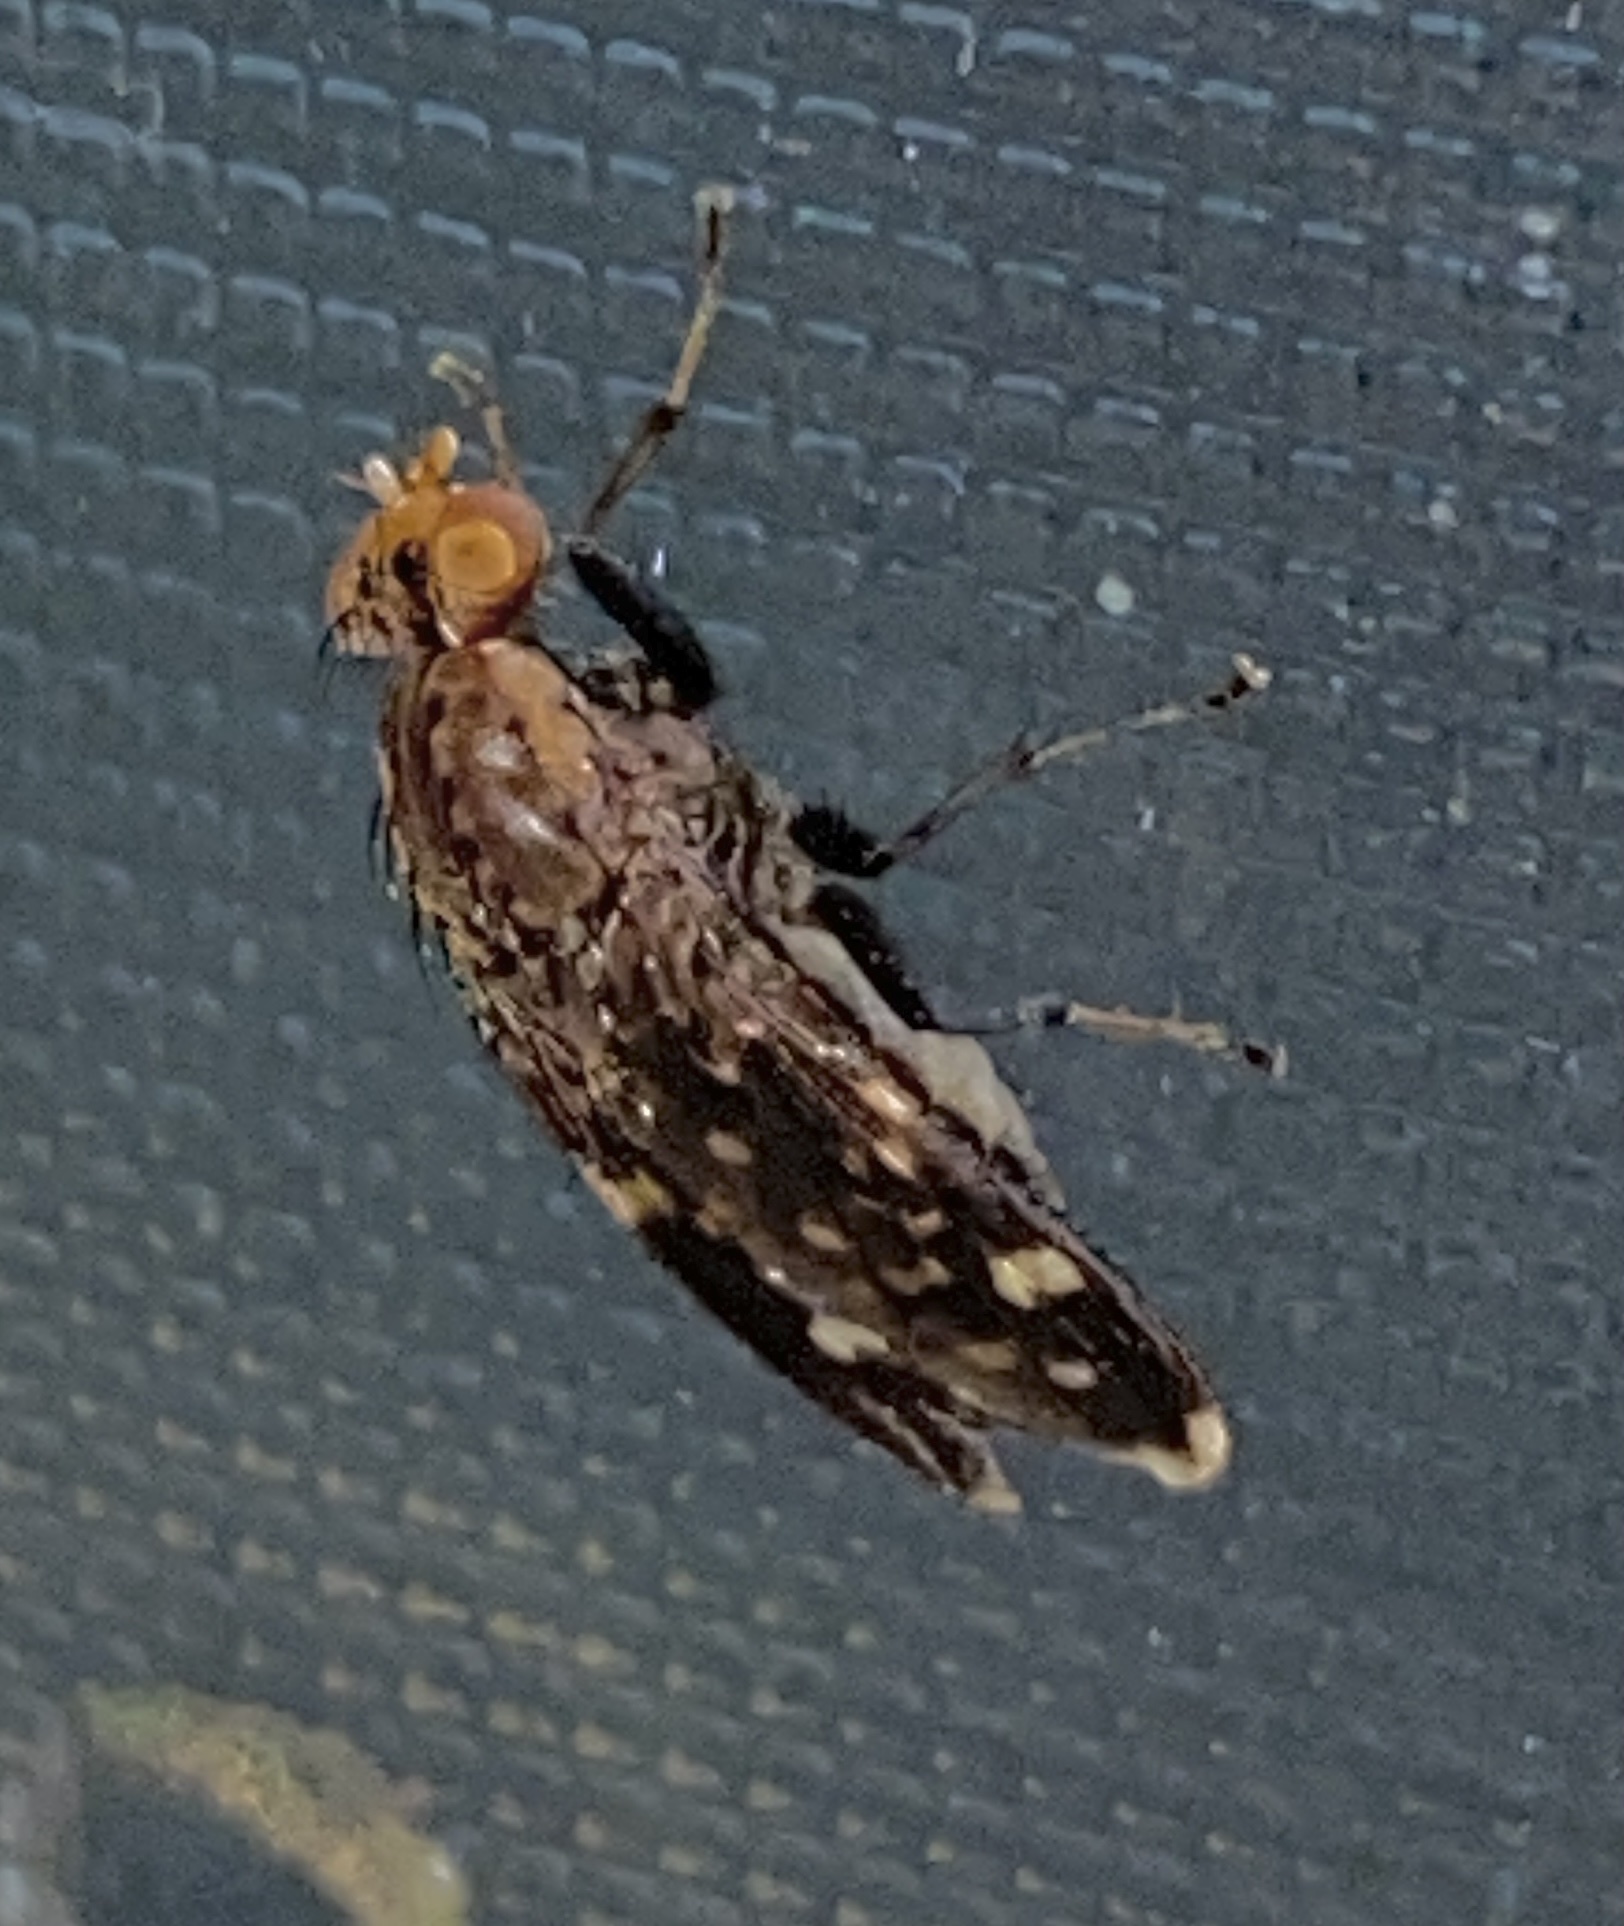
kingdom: Animalia
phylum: Arthropoda
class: Insecta
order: Diptera
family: Heleomyzidae
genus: Suillia
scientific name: Suillia picta
